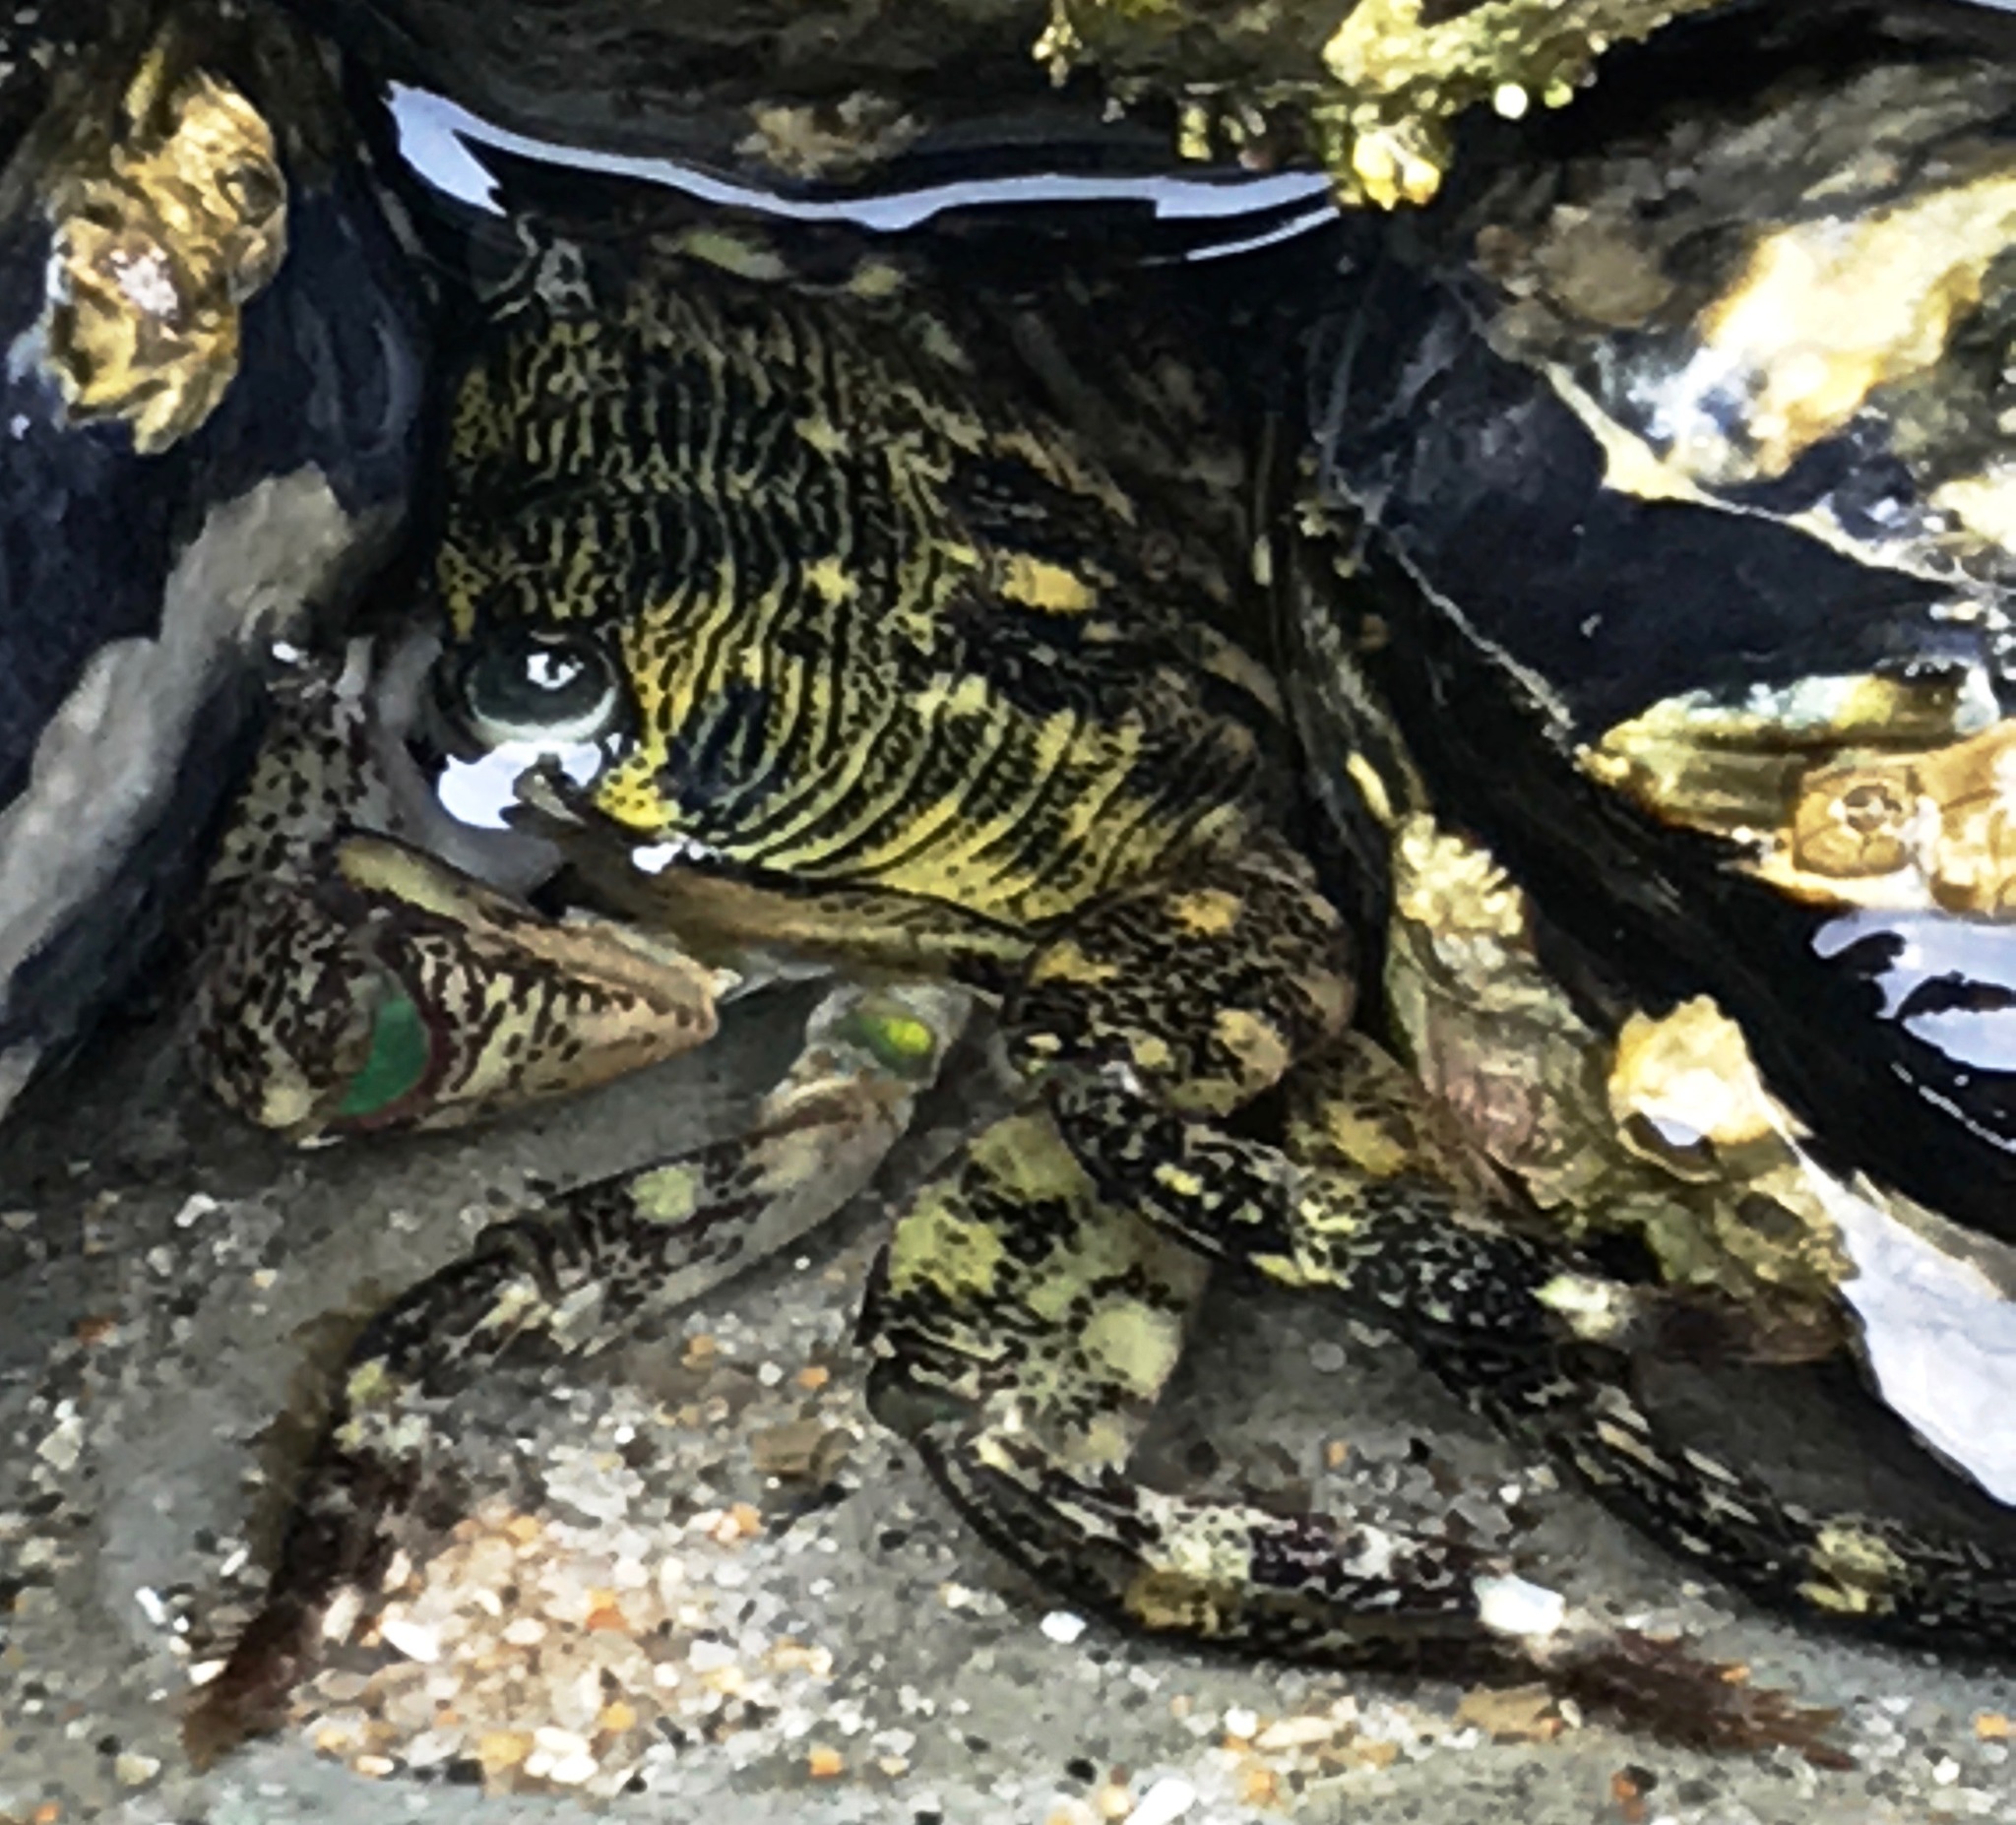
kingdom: Animalia
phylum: Arthropoda
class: Malacostraca
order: Decapoda
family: Grapsidae
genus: Pachygrapsus
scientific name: Pachygrapsus crassipes
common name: Striped shore crab
